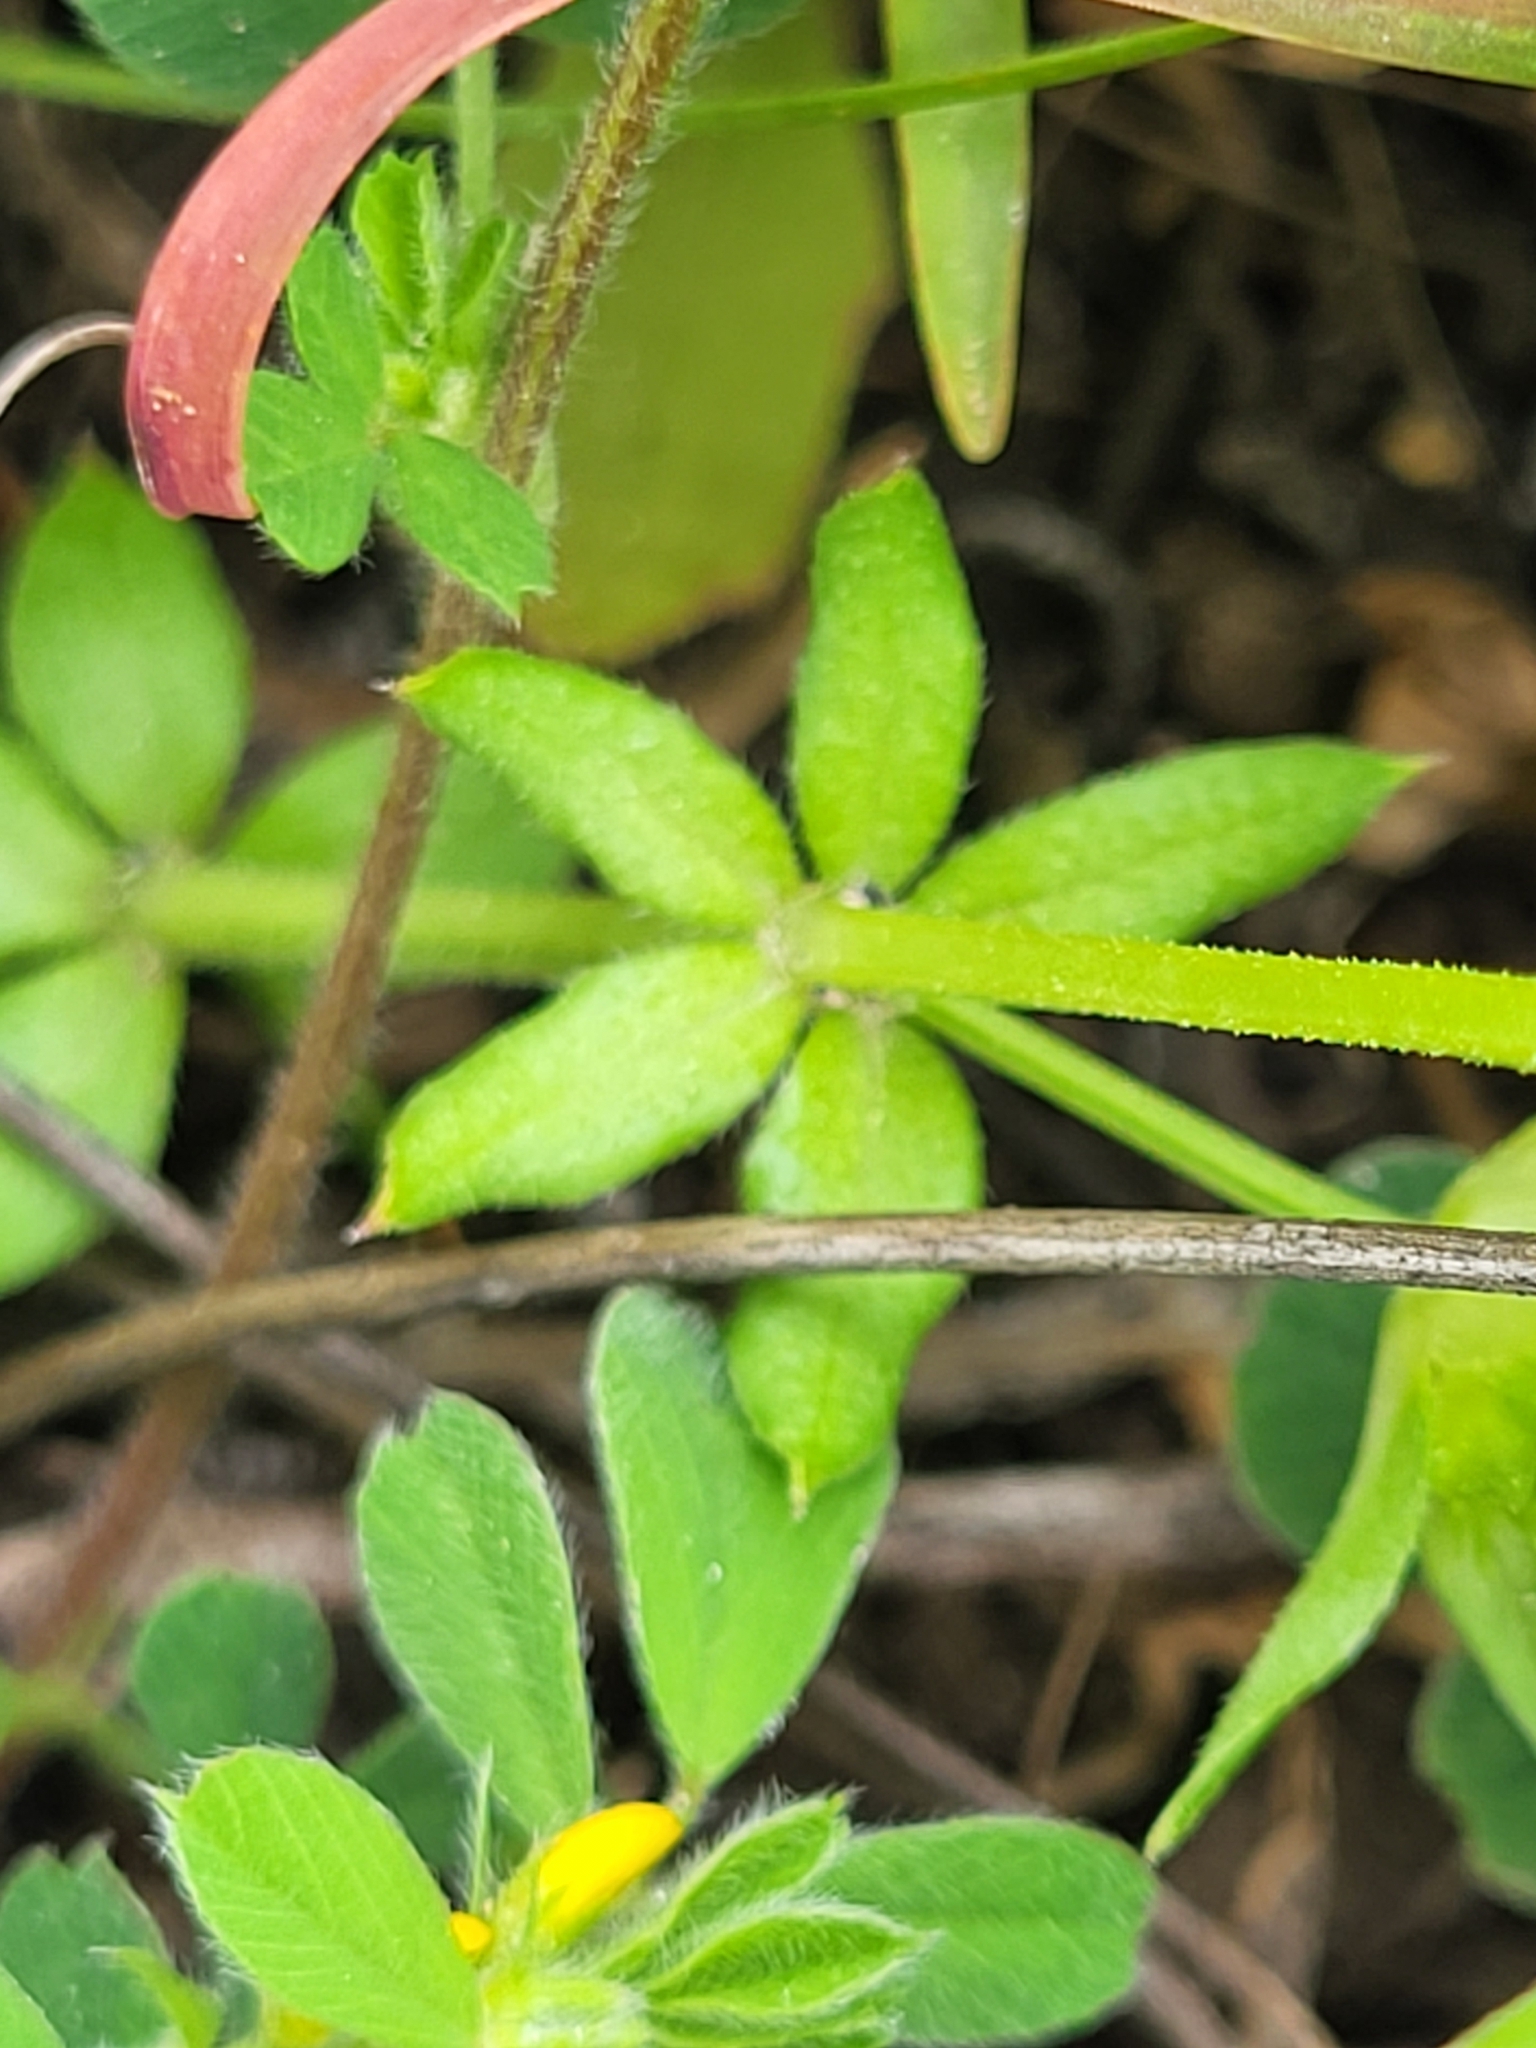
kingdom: Plantae
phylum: Tracheophyta
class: Magnoliopsida
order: Gentianales
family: Rubiaceae
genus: Sherardia
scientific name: Sherardia arvensis
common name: Field madder
